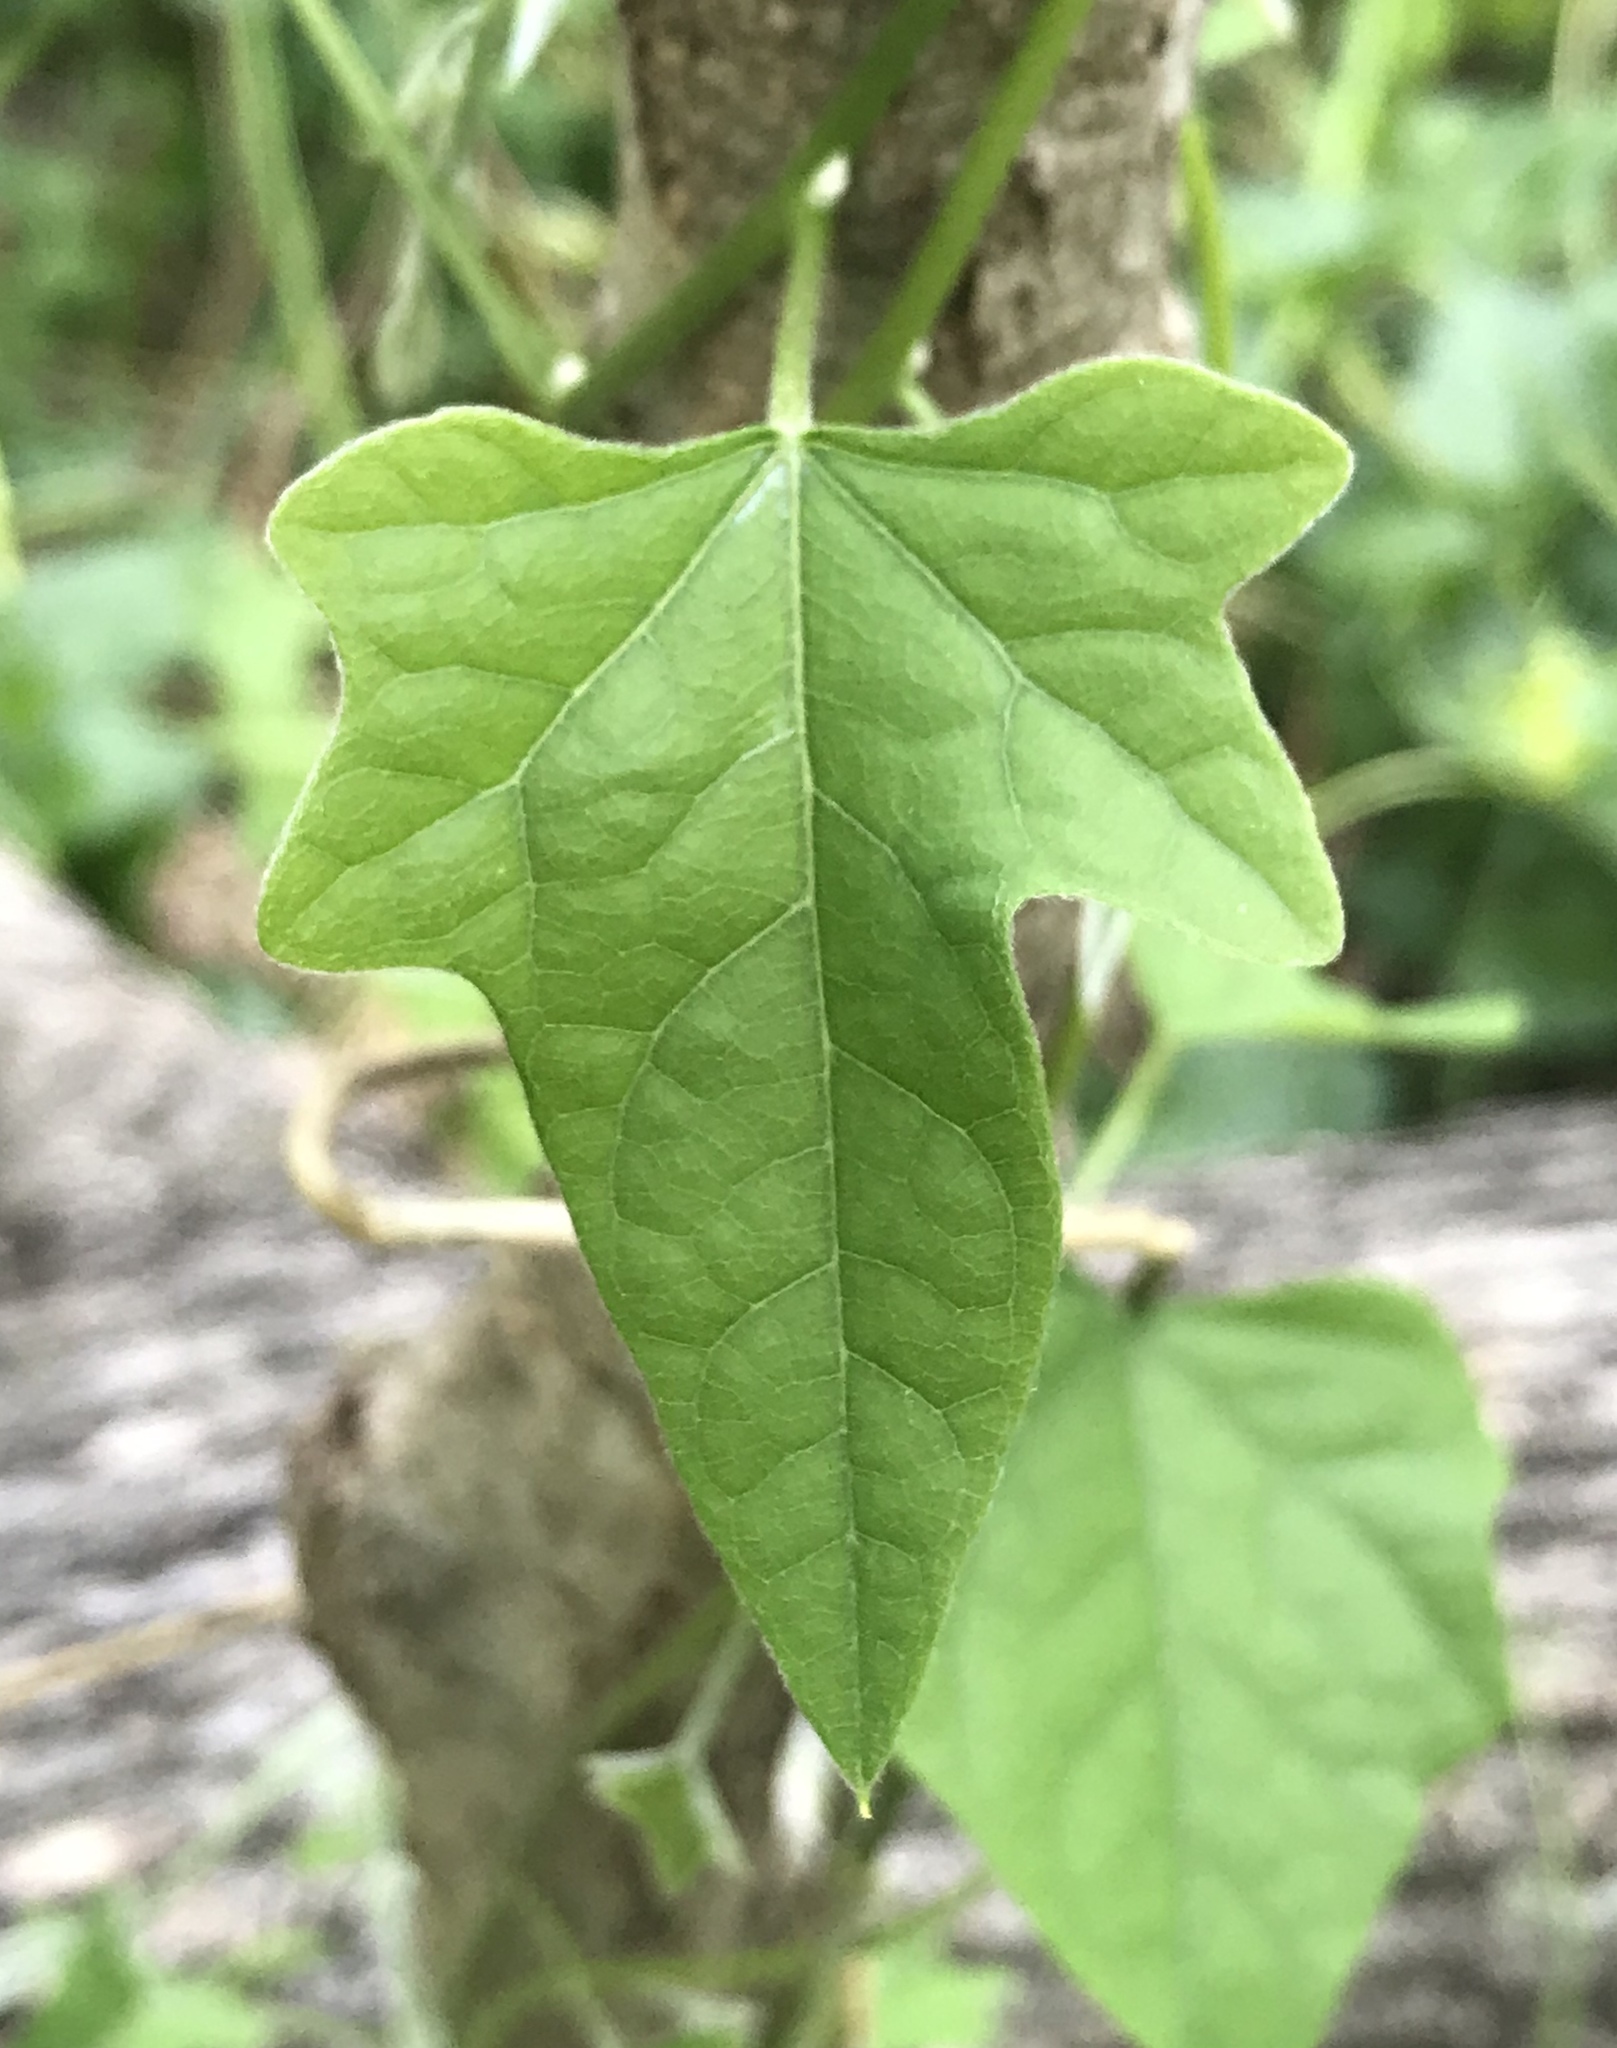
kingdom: Plantae
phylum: Tracheophyta
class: Magnoliopsida
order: Ranunculales
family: Menispermaceae
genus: Cocculus
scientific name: Cocculus carolinus
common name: Carolina moonseed
